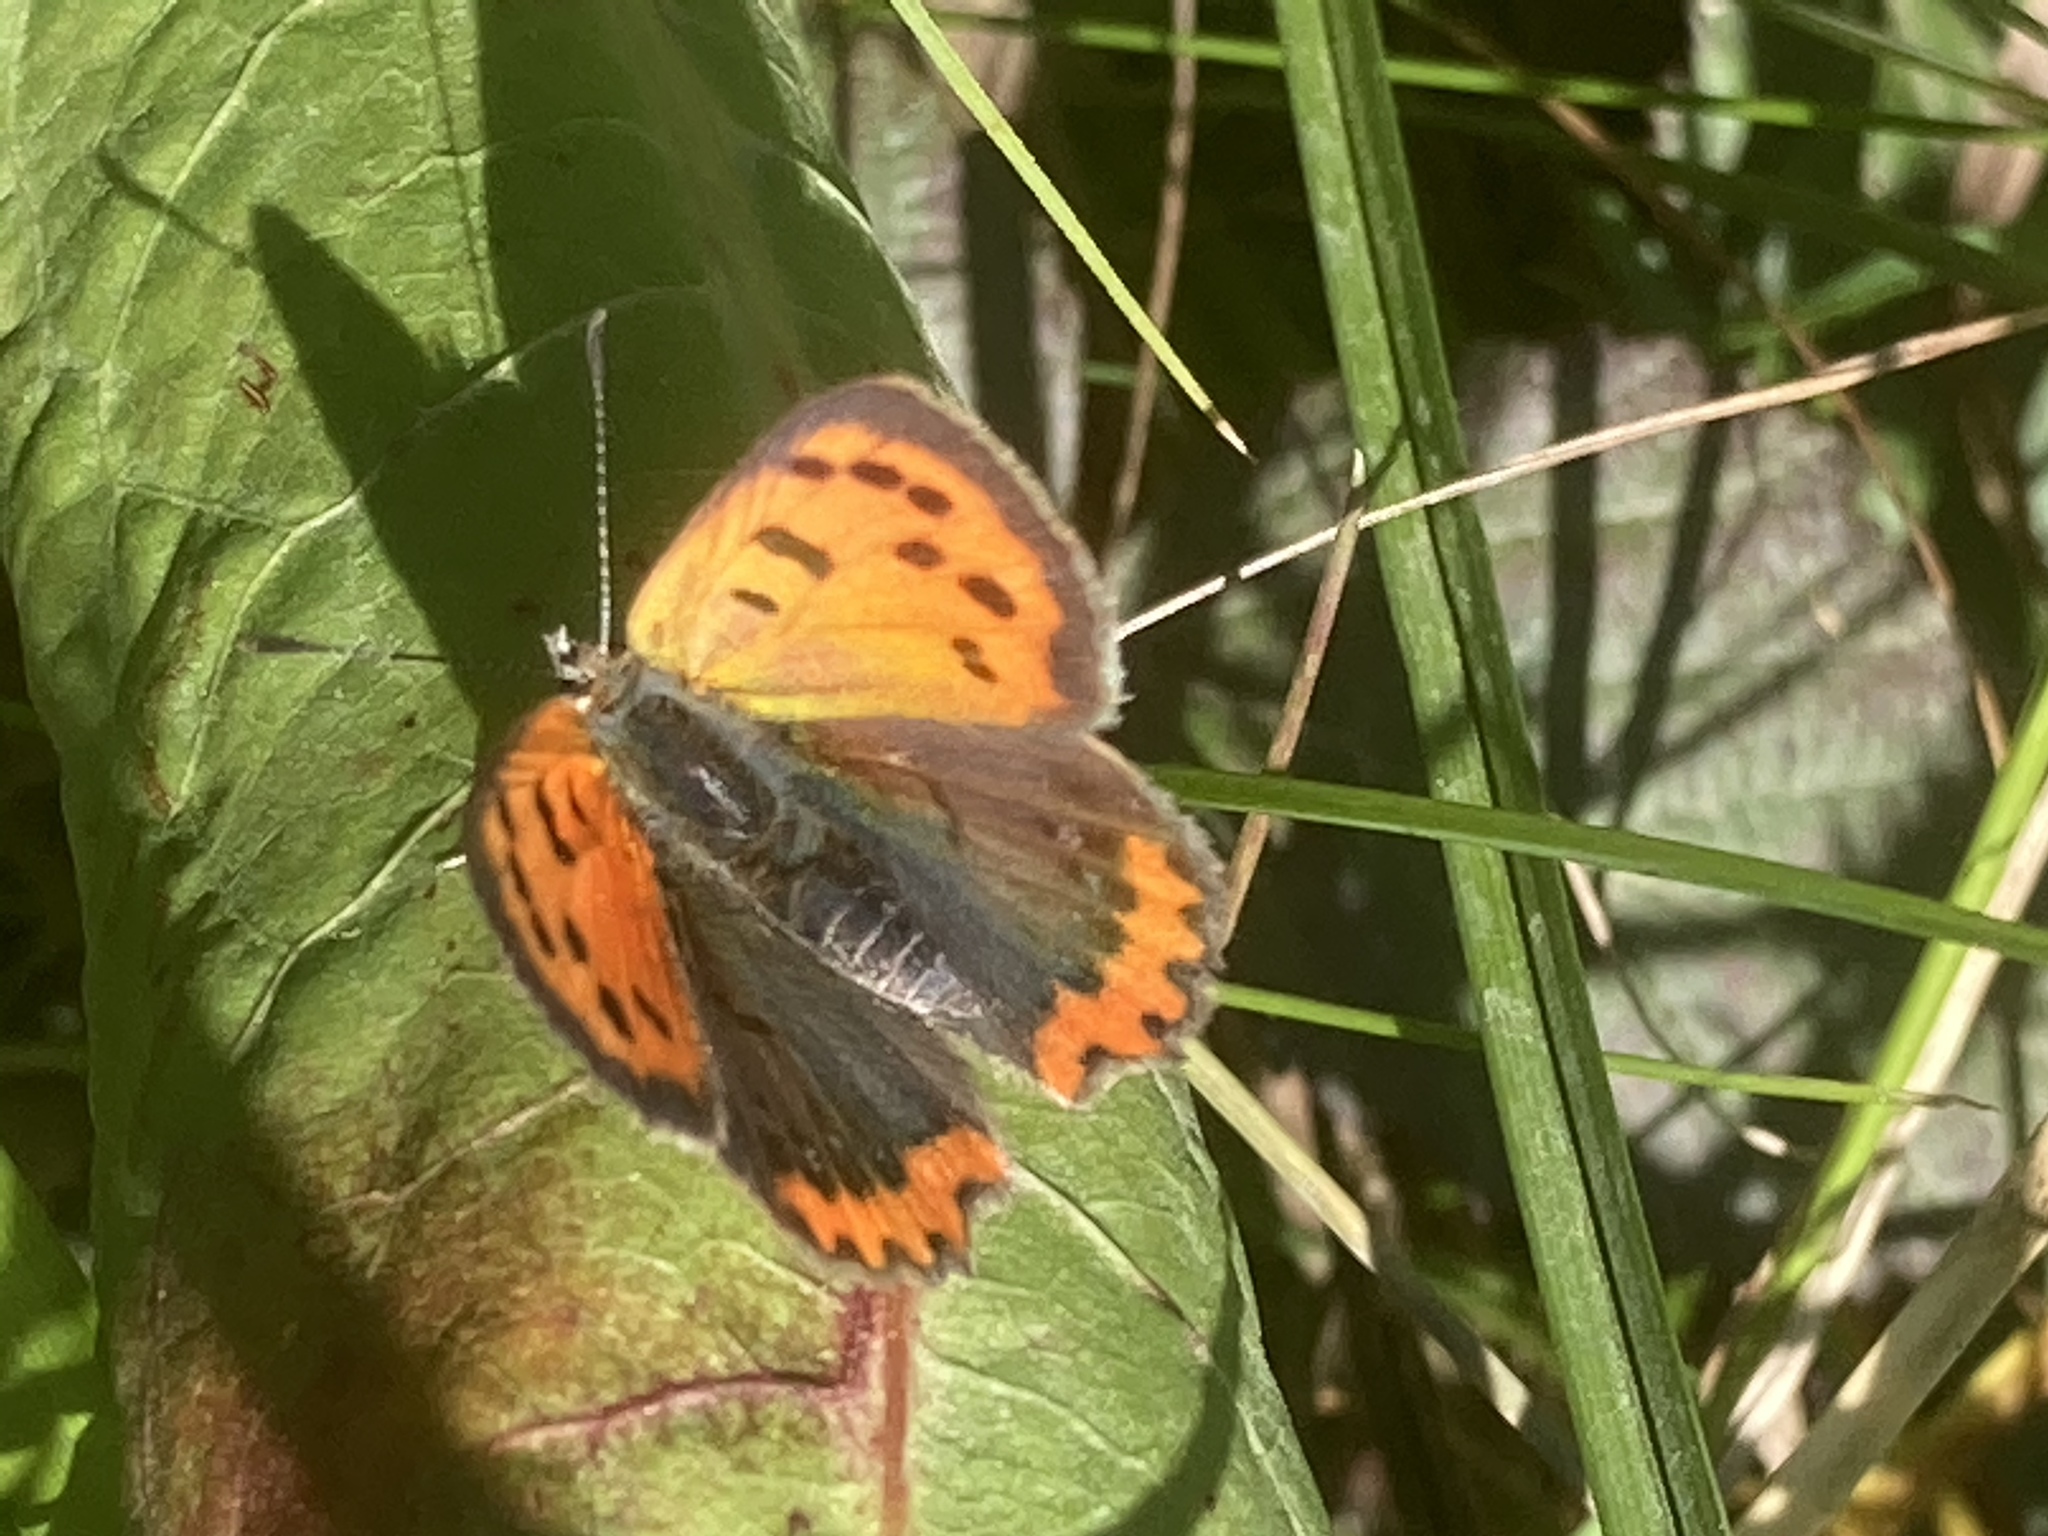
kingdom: Animalia
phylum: Arthropoda
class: Insecta
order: Lepidoptera
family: Lycaenidae
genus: Lycaena
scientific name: Lycaena phlaeas
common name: Small copper
